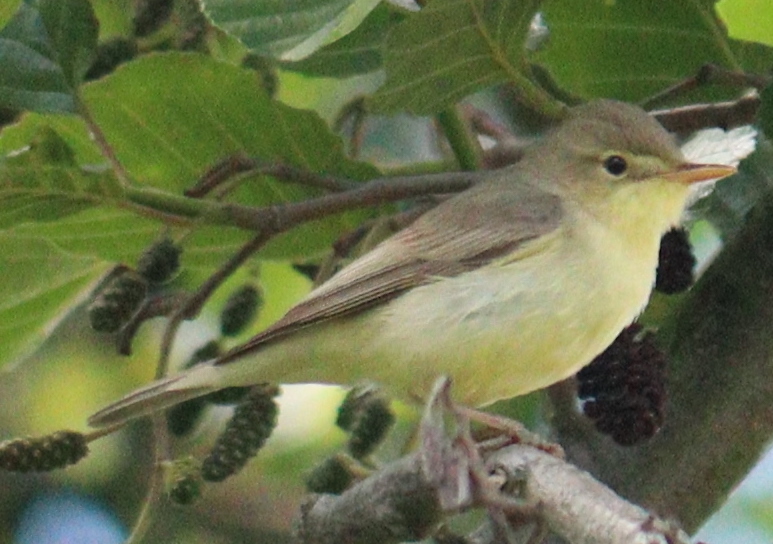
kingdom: Animalia
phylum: Chordata
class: Aves
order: Passeriformes
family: Acrocephalidae
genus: Hippolais
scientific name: Hippolais polyglotta
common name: Melodious warbler
